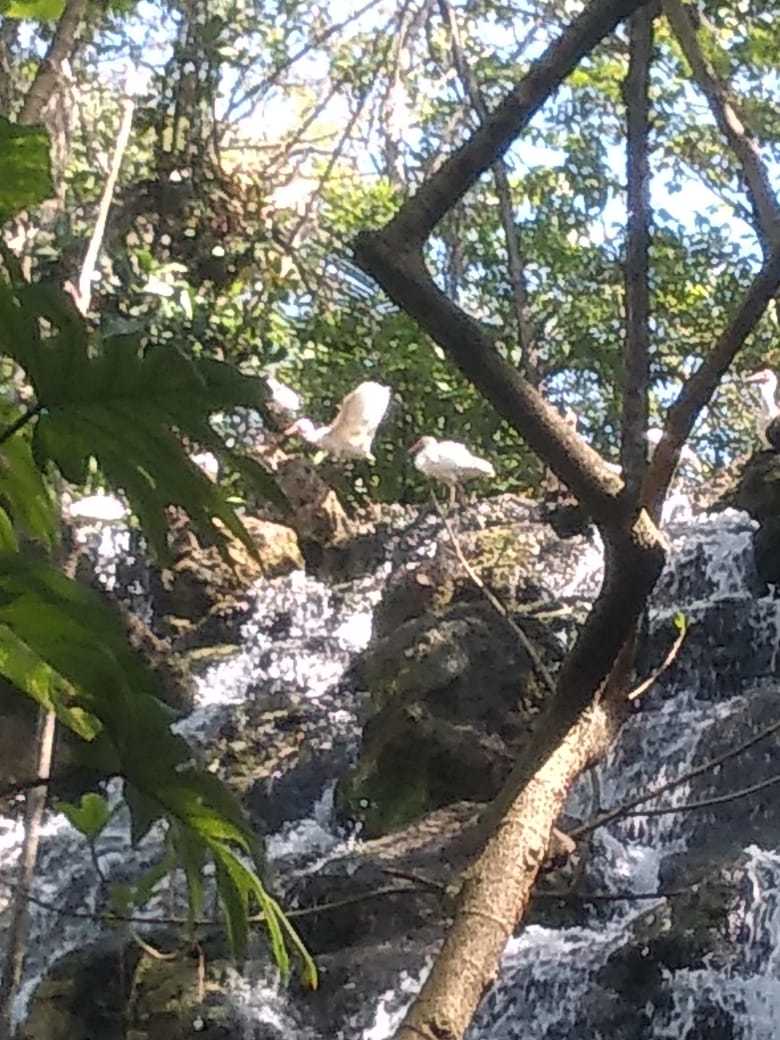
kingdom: Animalia
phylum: Chordata
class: Aves
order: Pelecaniformes
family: Threskiornithidae
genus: Eudocimus
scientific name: Eudocimus albus
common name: White ibis
